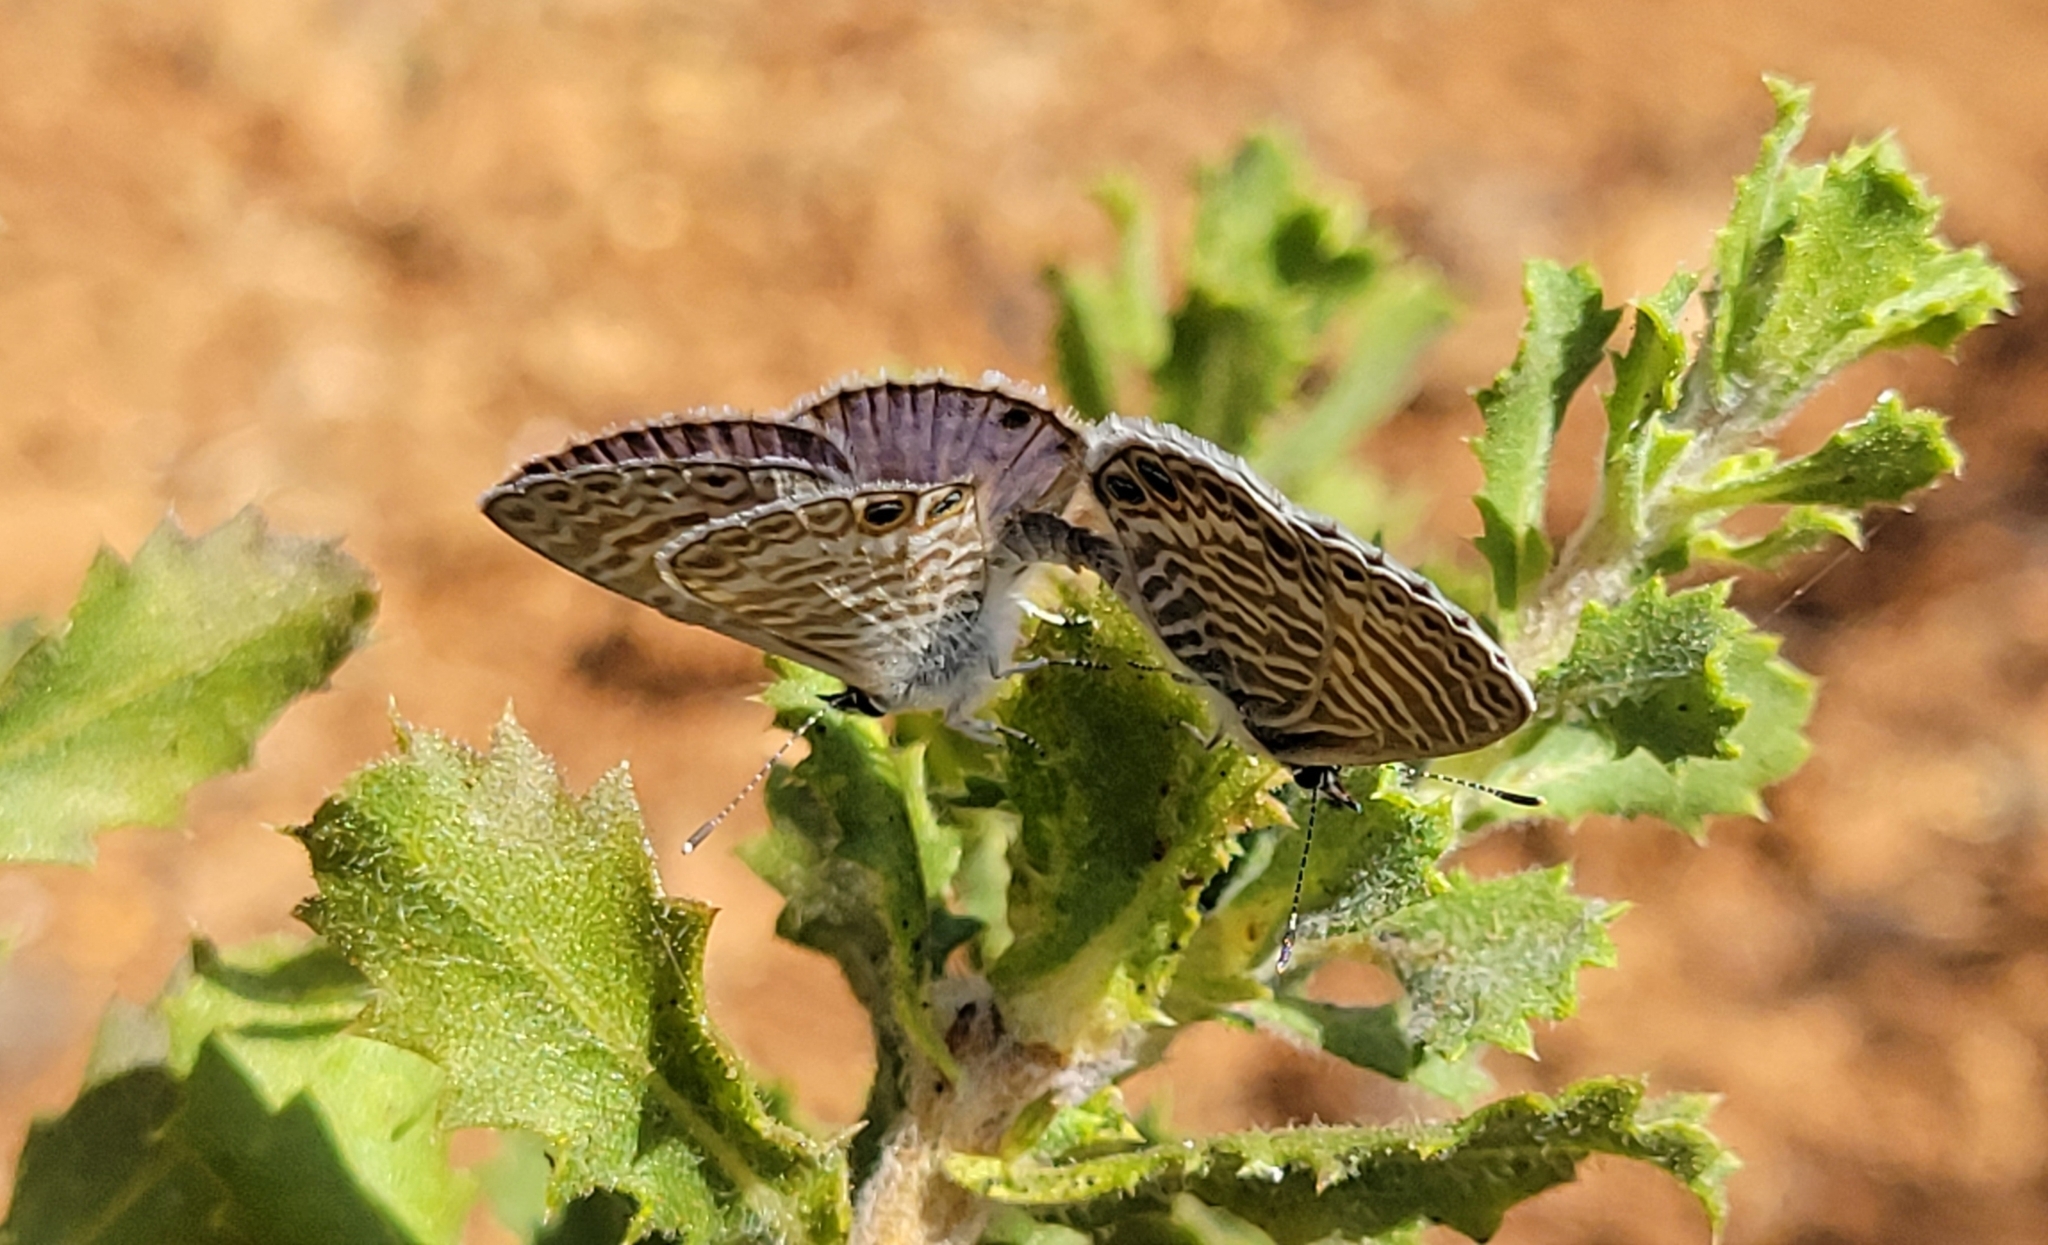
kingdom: Animalia
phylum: Arthropoda
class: Insecta
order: Lepidoptera
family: Lycaenidae
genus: Leptotes
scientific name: Leptotes marina
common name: Marine blue
